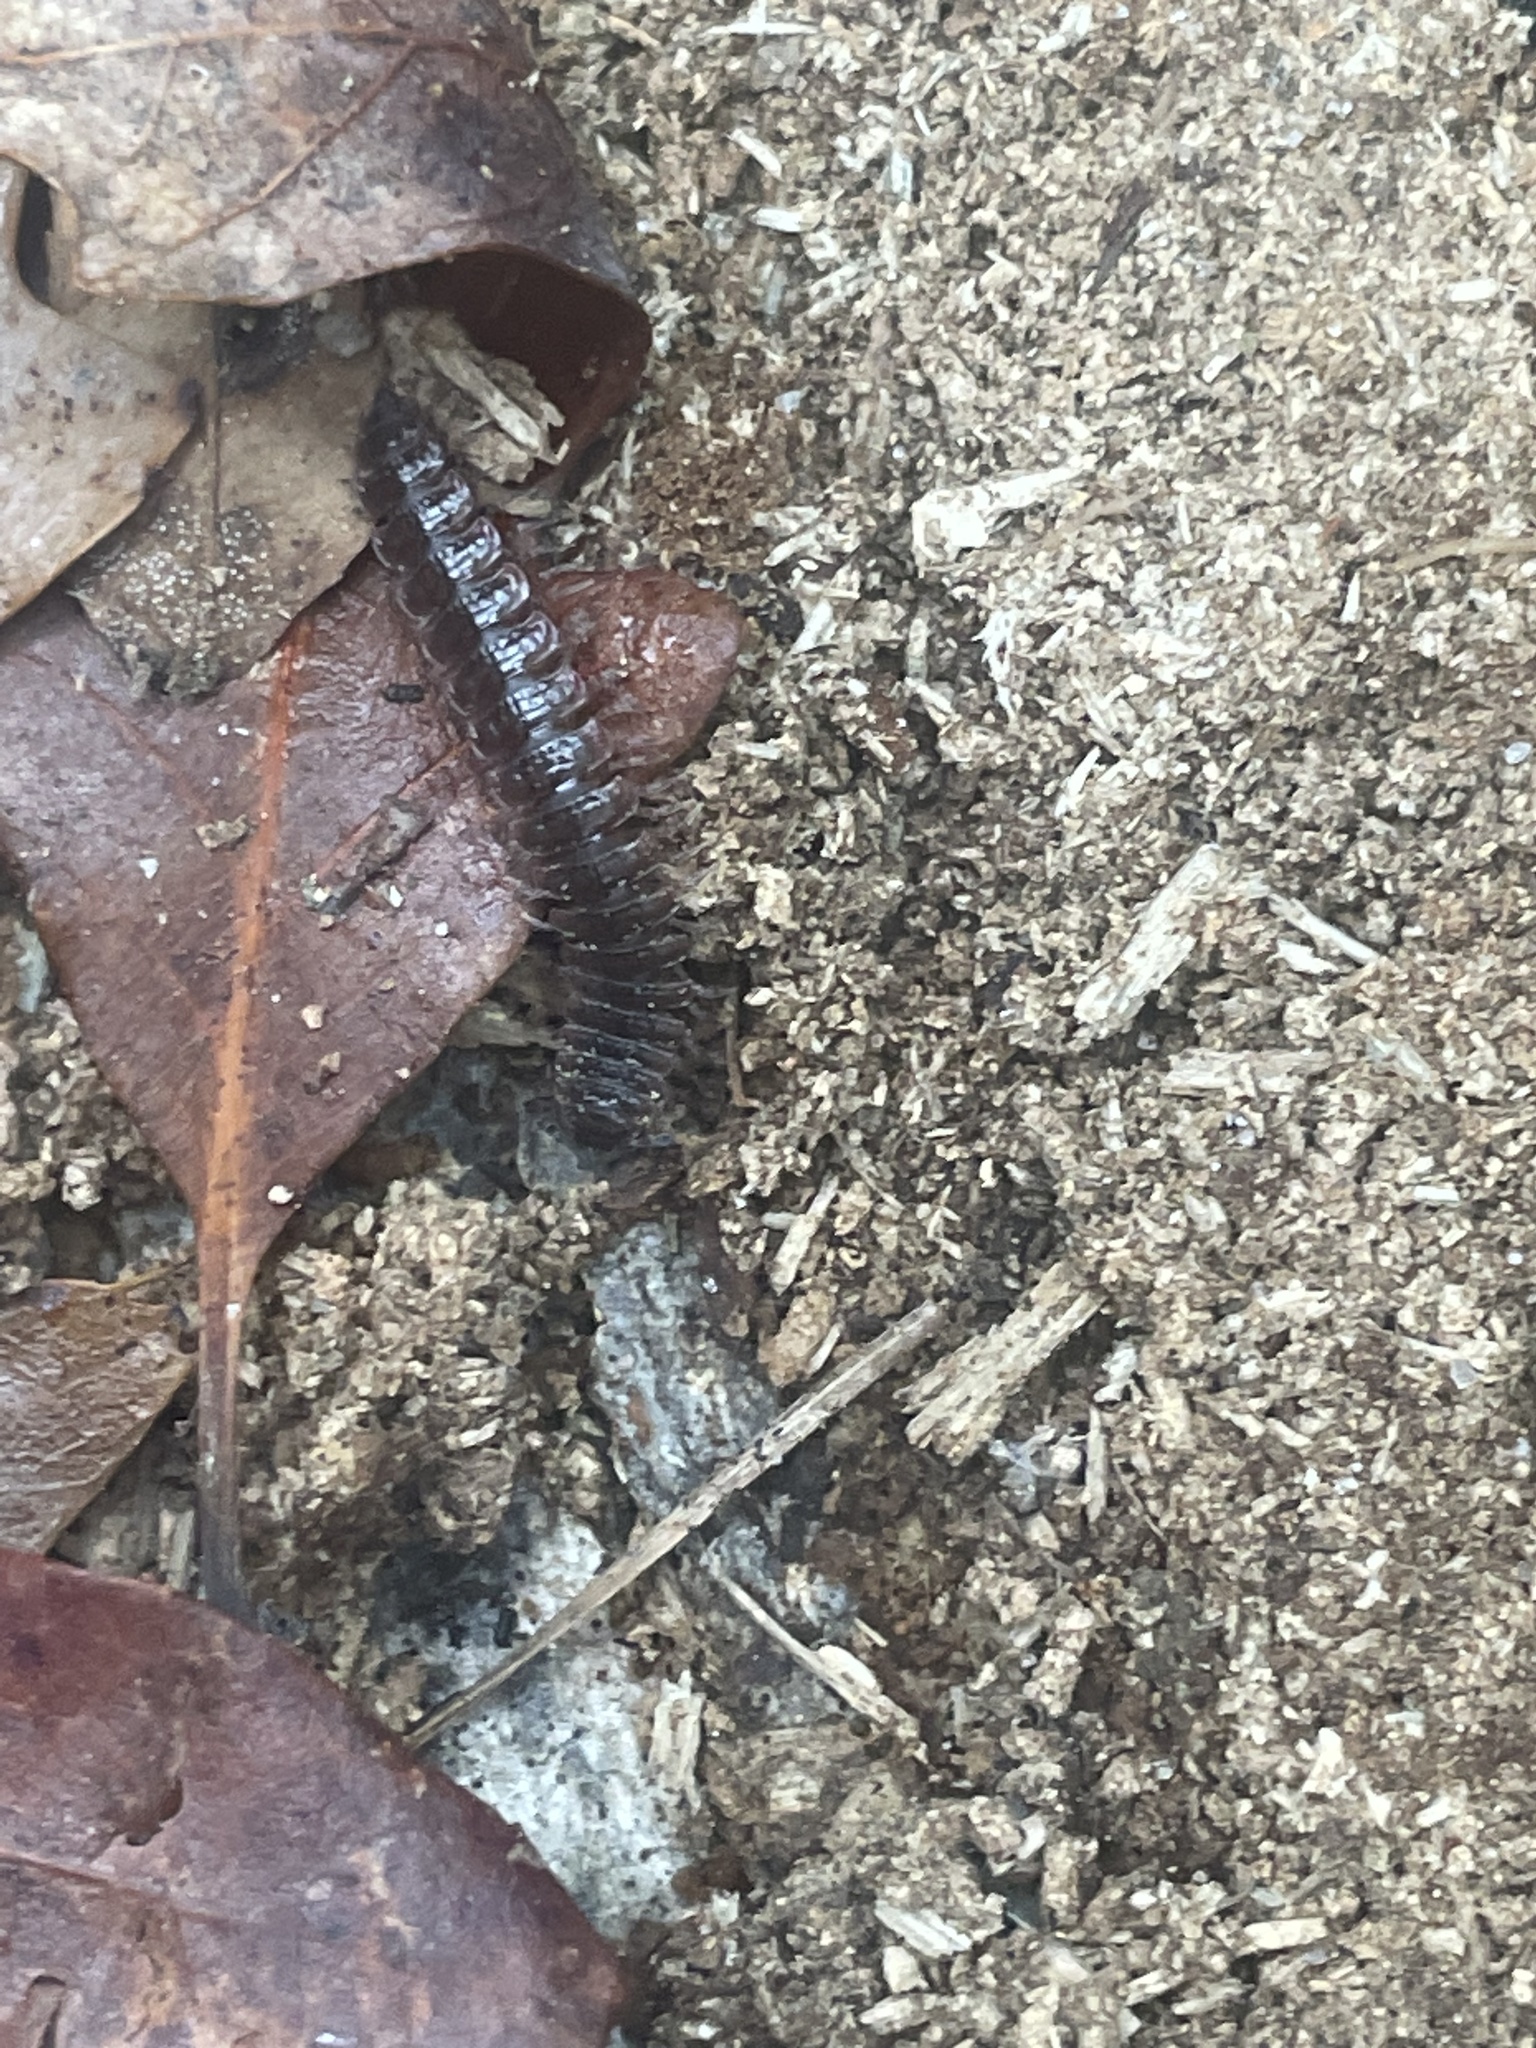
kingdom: Animalia
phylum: Arthropoda
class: Diplopoda
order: Polydesmida
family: Polydesmidae
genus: Pseudopolydesmus
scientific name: Pseudopolydesmus serratus
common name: Common pink flat-back millipede
